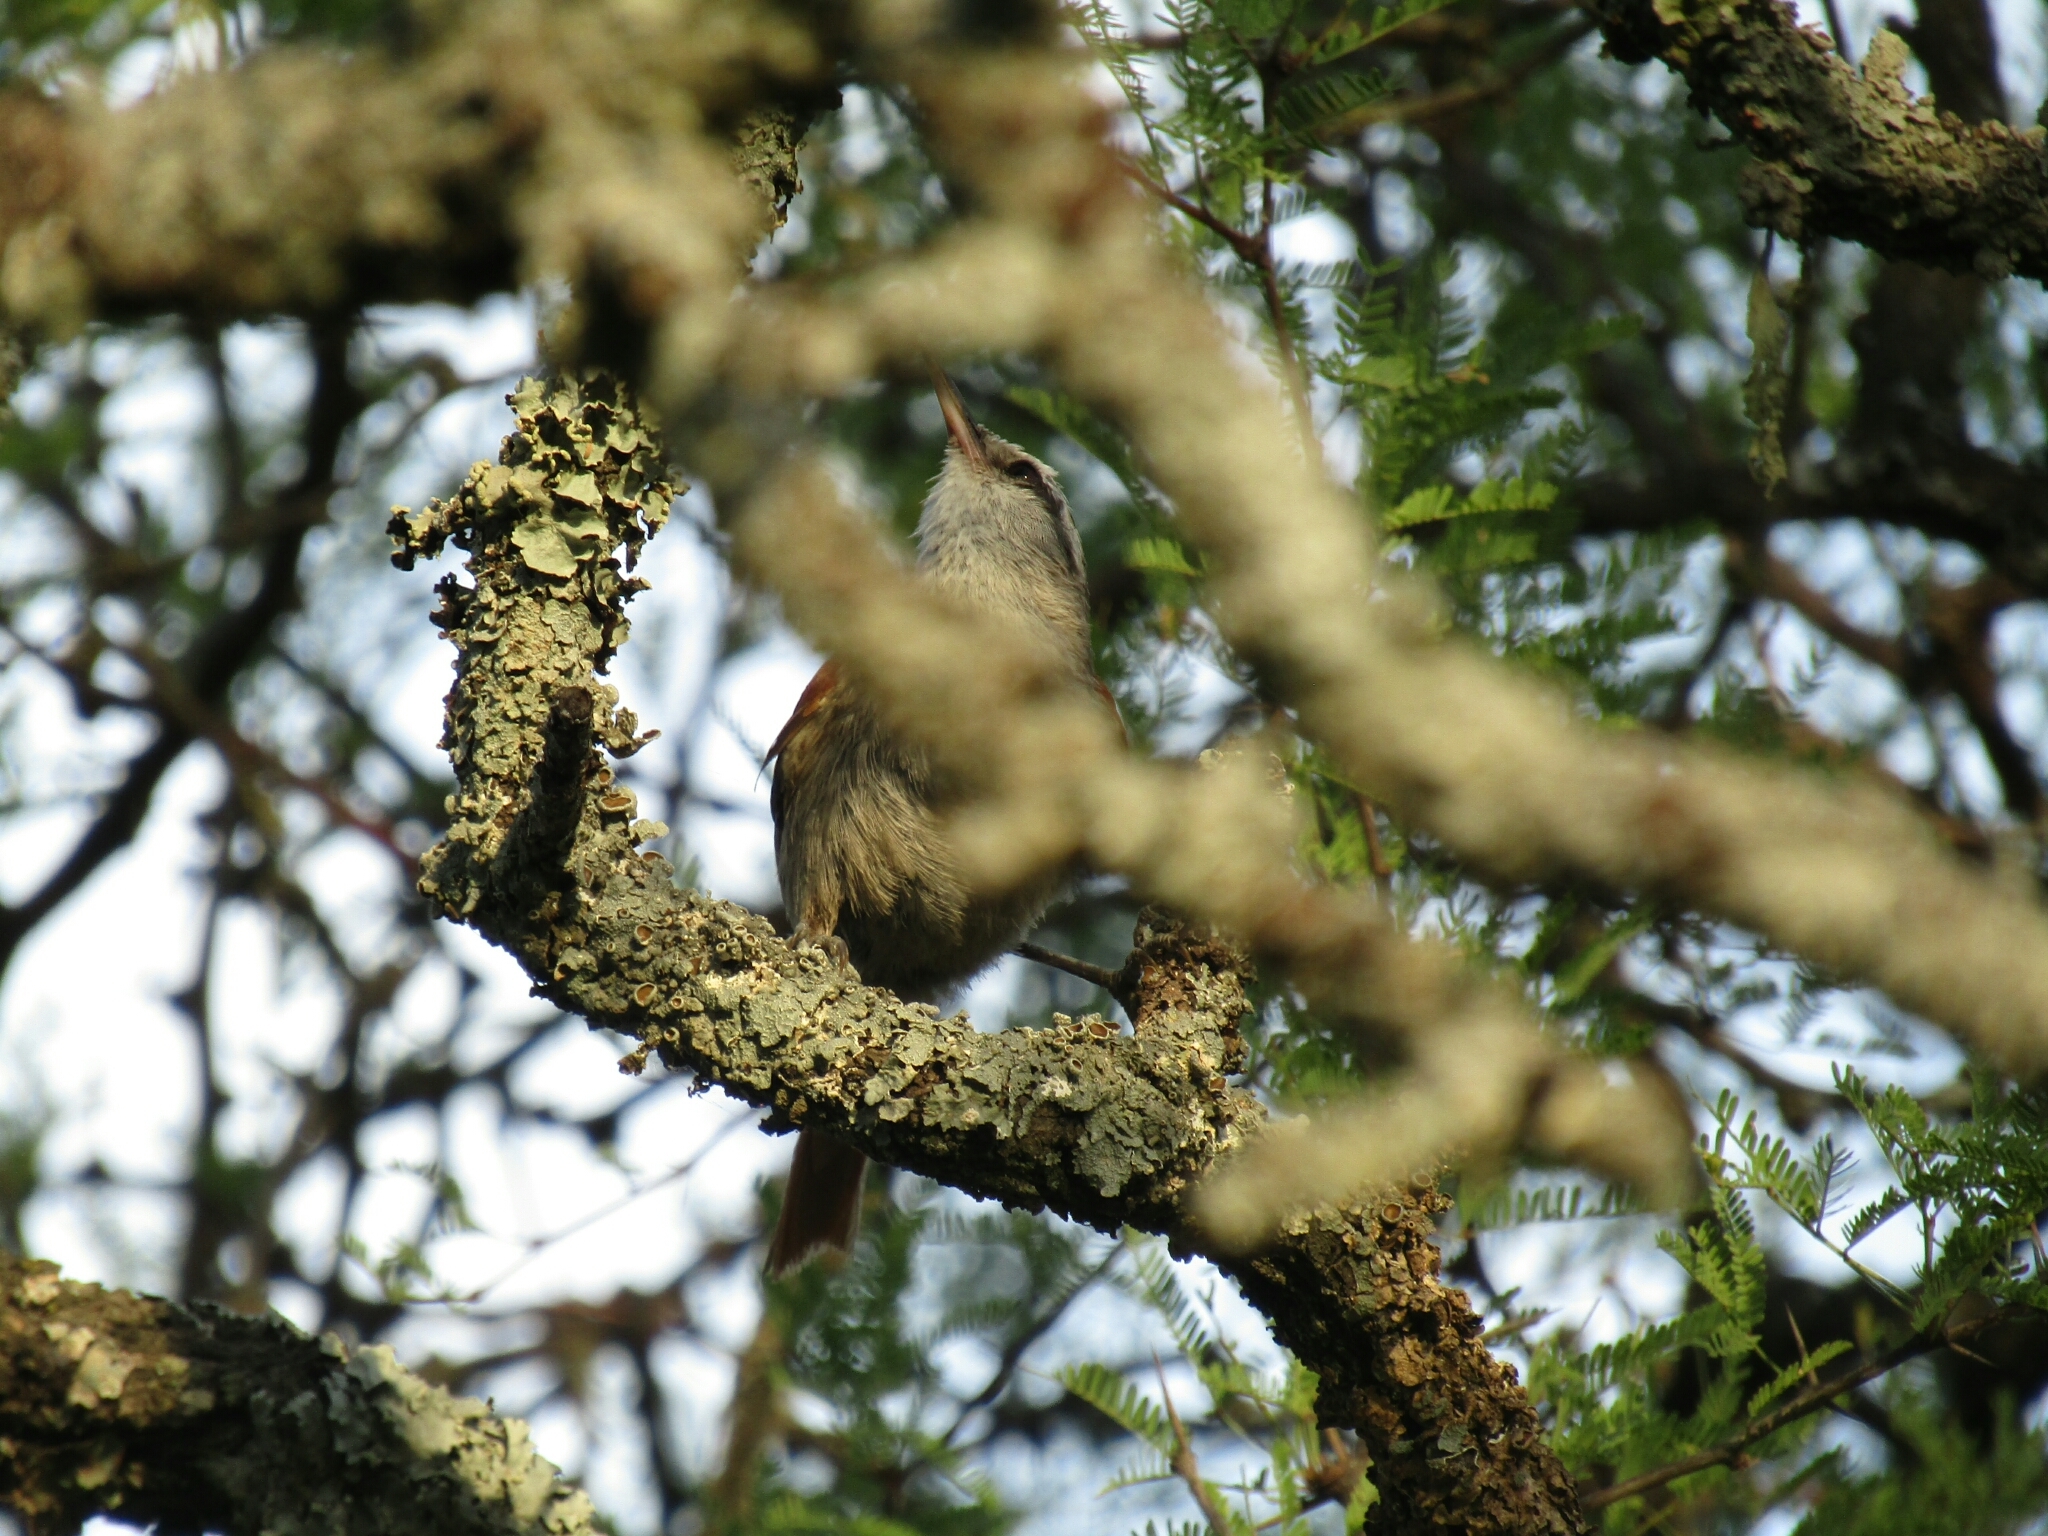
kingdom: Animalia
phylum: Chordata
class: Aves
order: Passeriformes
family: Furnariidae
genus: Cranioleuca
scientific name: Cranioleuca pyrrhophia
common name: Stripe-crowned spinetail
